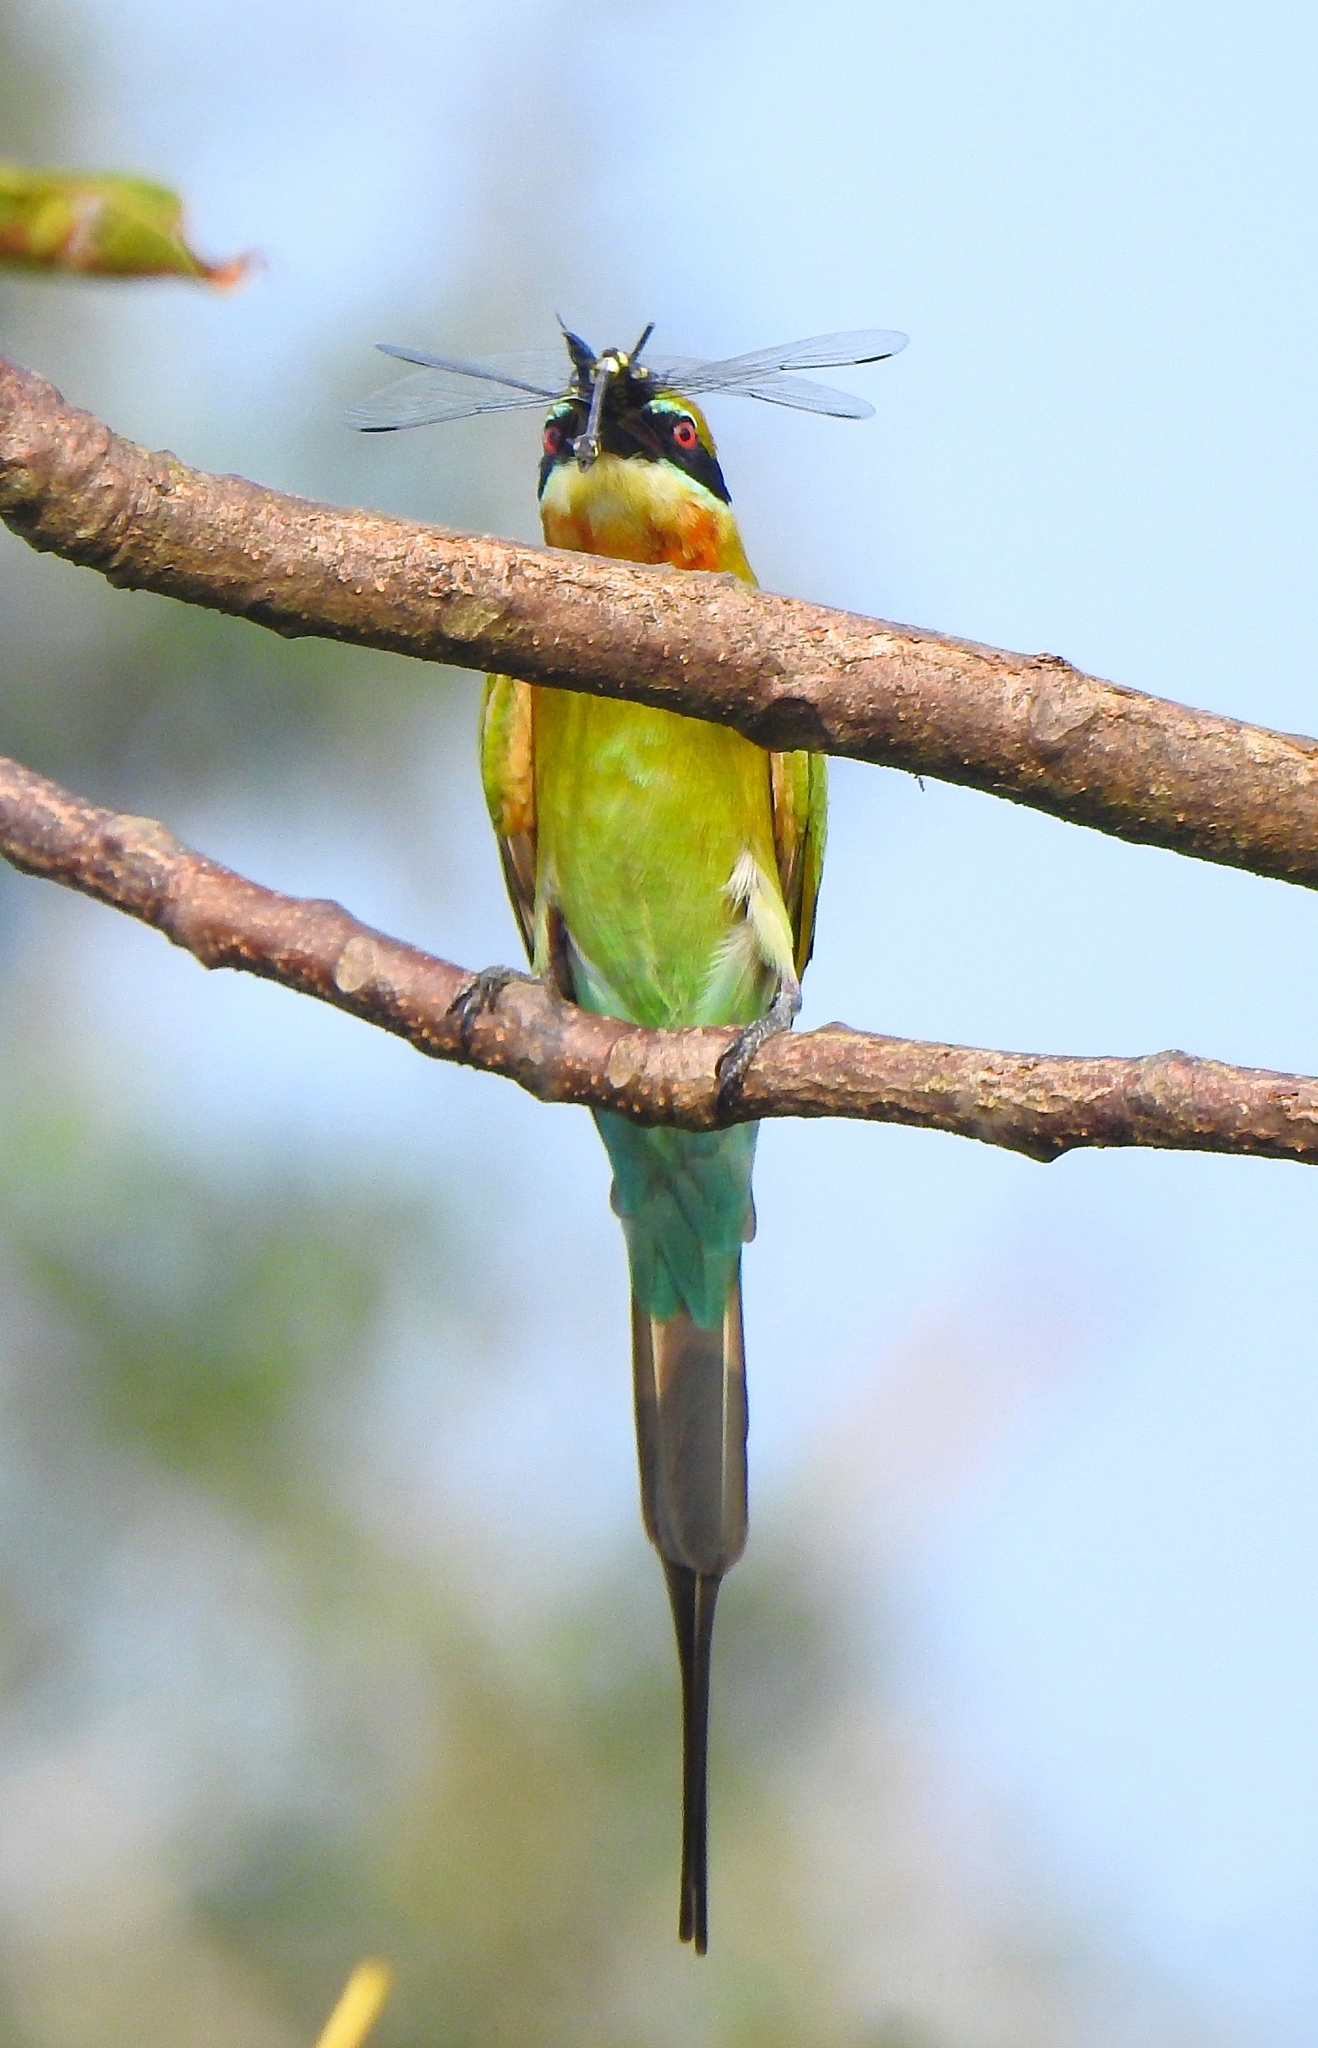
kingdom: Animalia
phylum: Chordata
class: Aves
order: Coraciiformes
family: Meropidae
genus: Merops
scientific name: Merops philippinus
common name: Blue-tailed bee-eater
